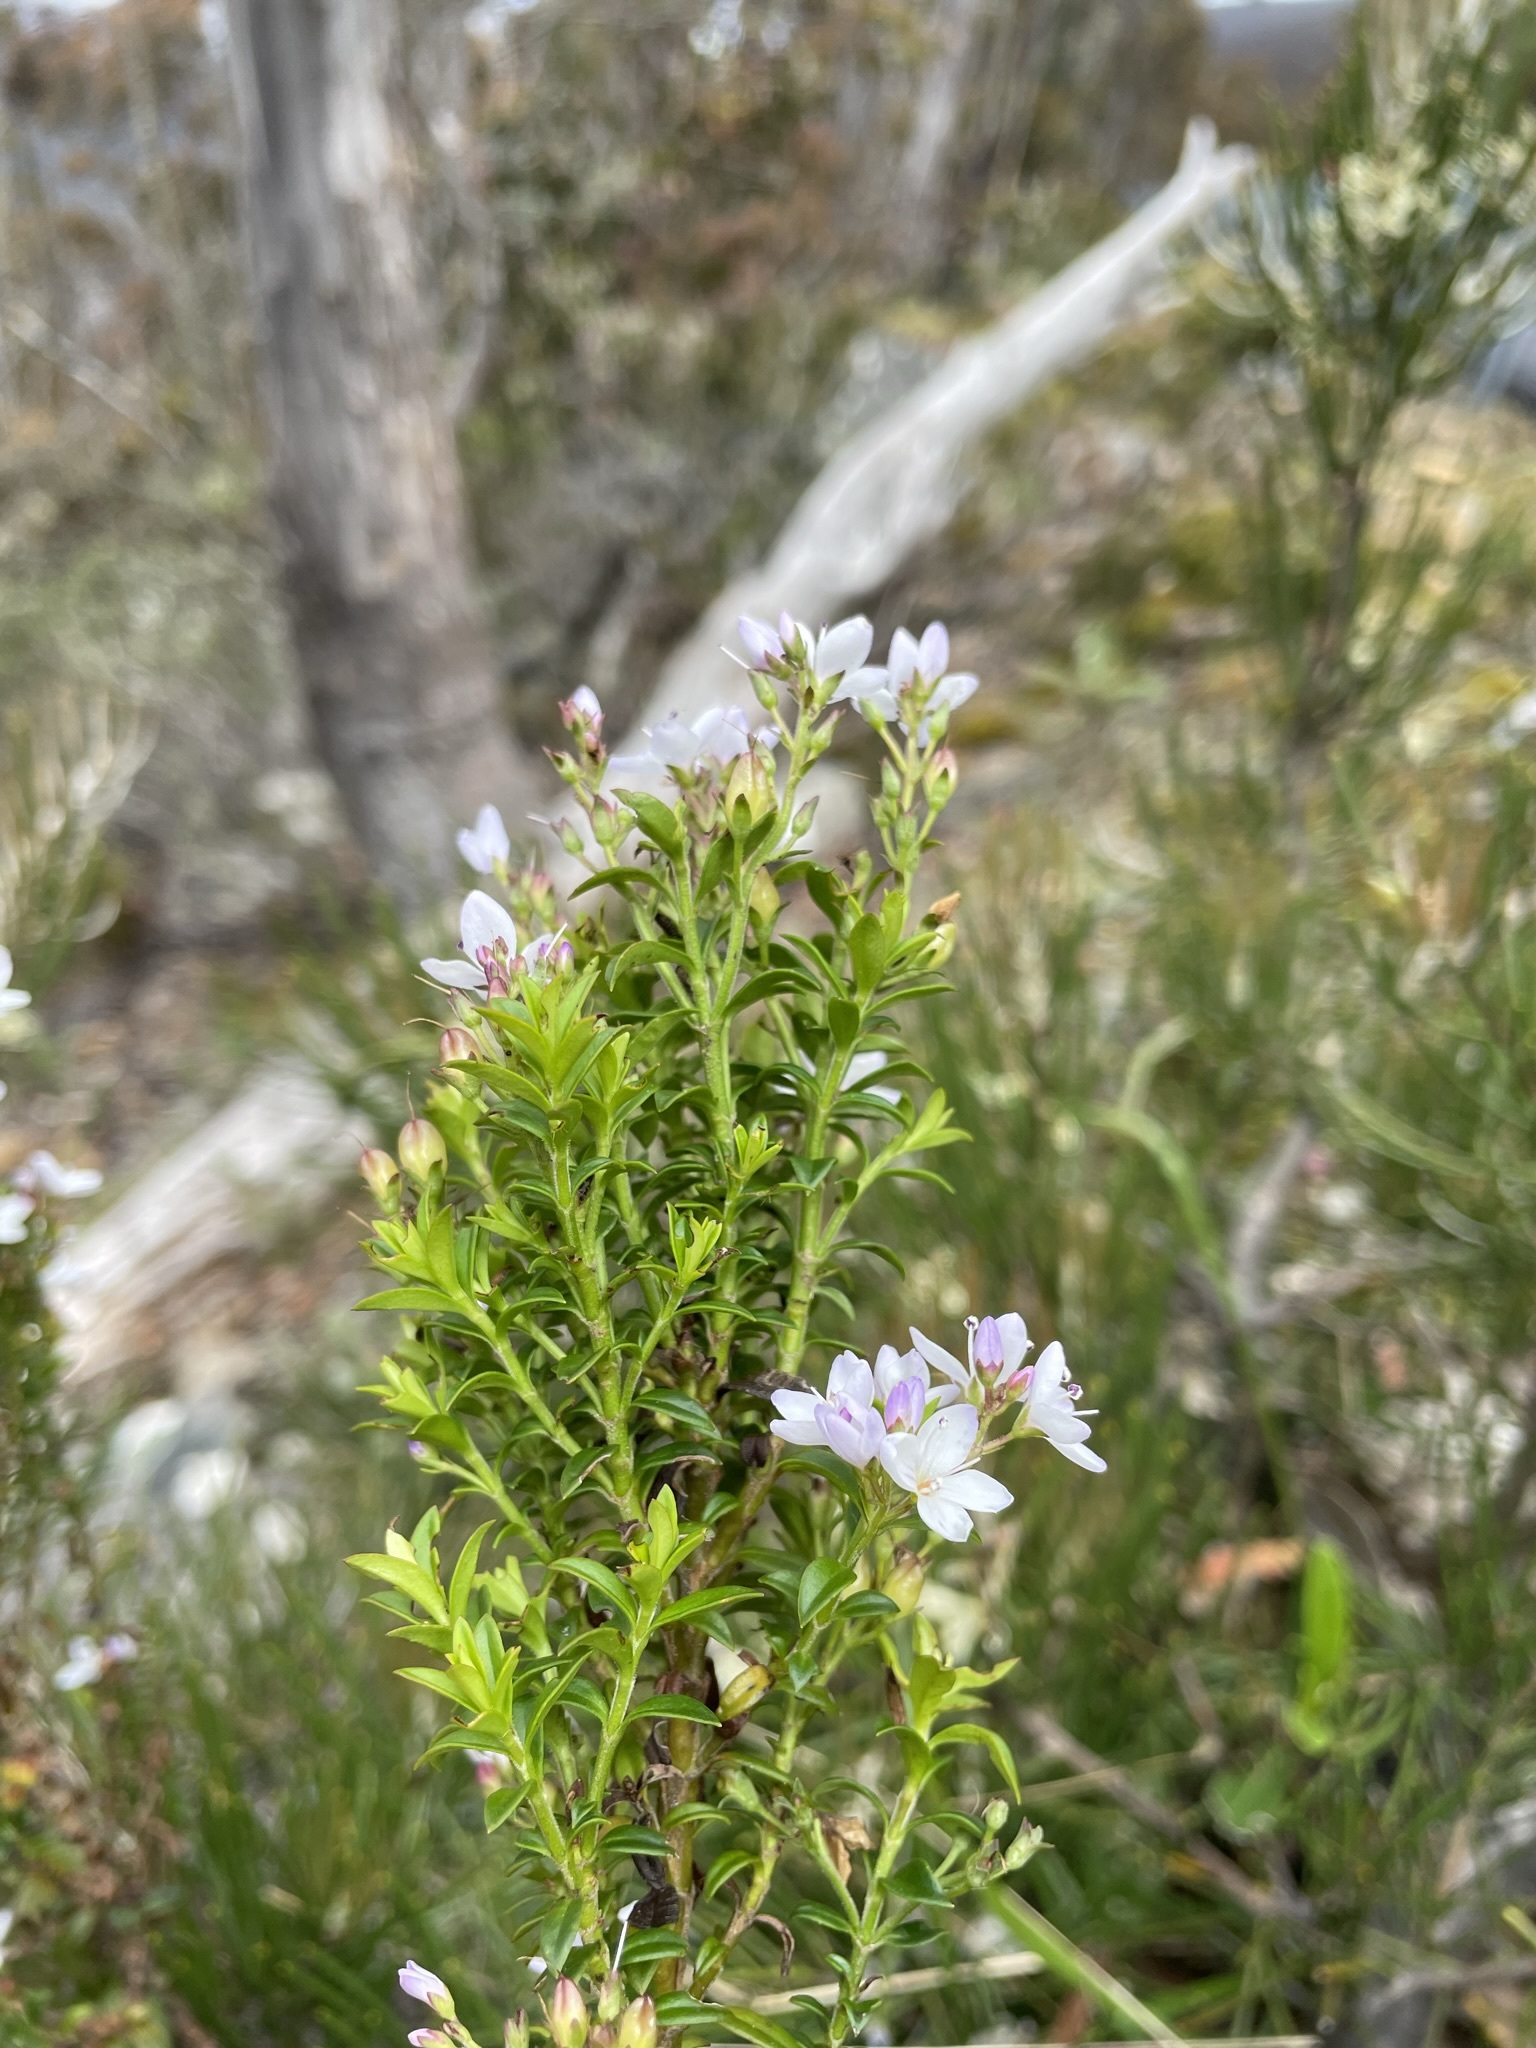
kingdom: Plantae
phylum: Tracheophyta
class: Magnoliopsida
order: Lamiales
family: Plantaginaceae
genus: Veronica
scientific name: Veronica formosa
